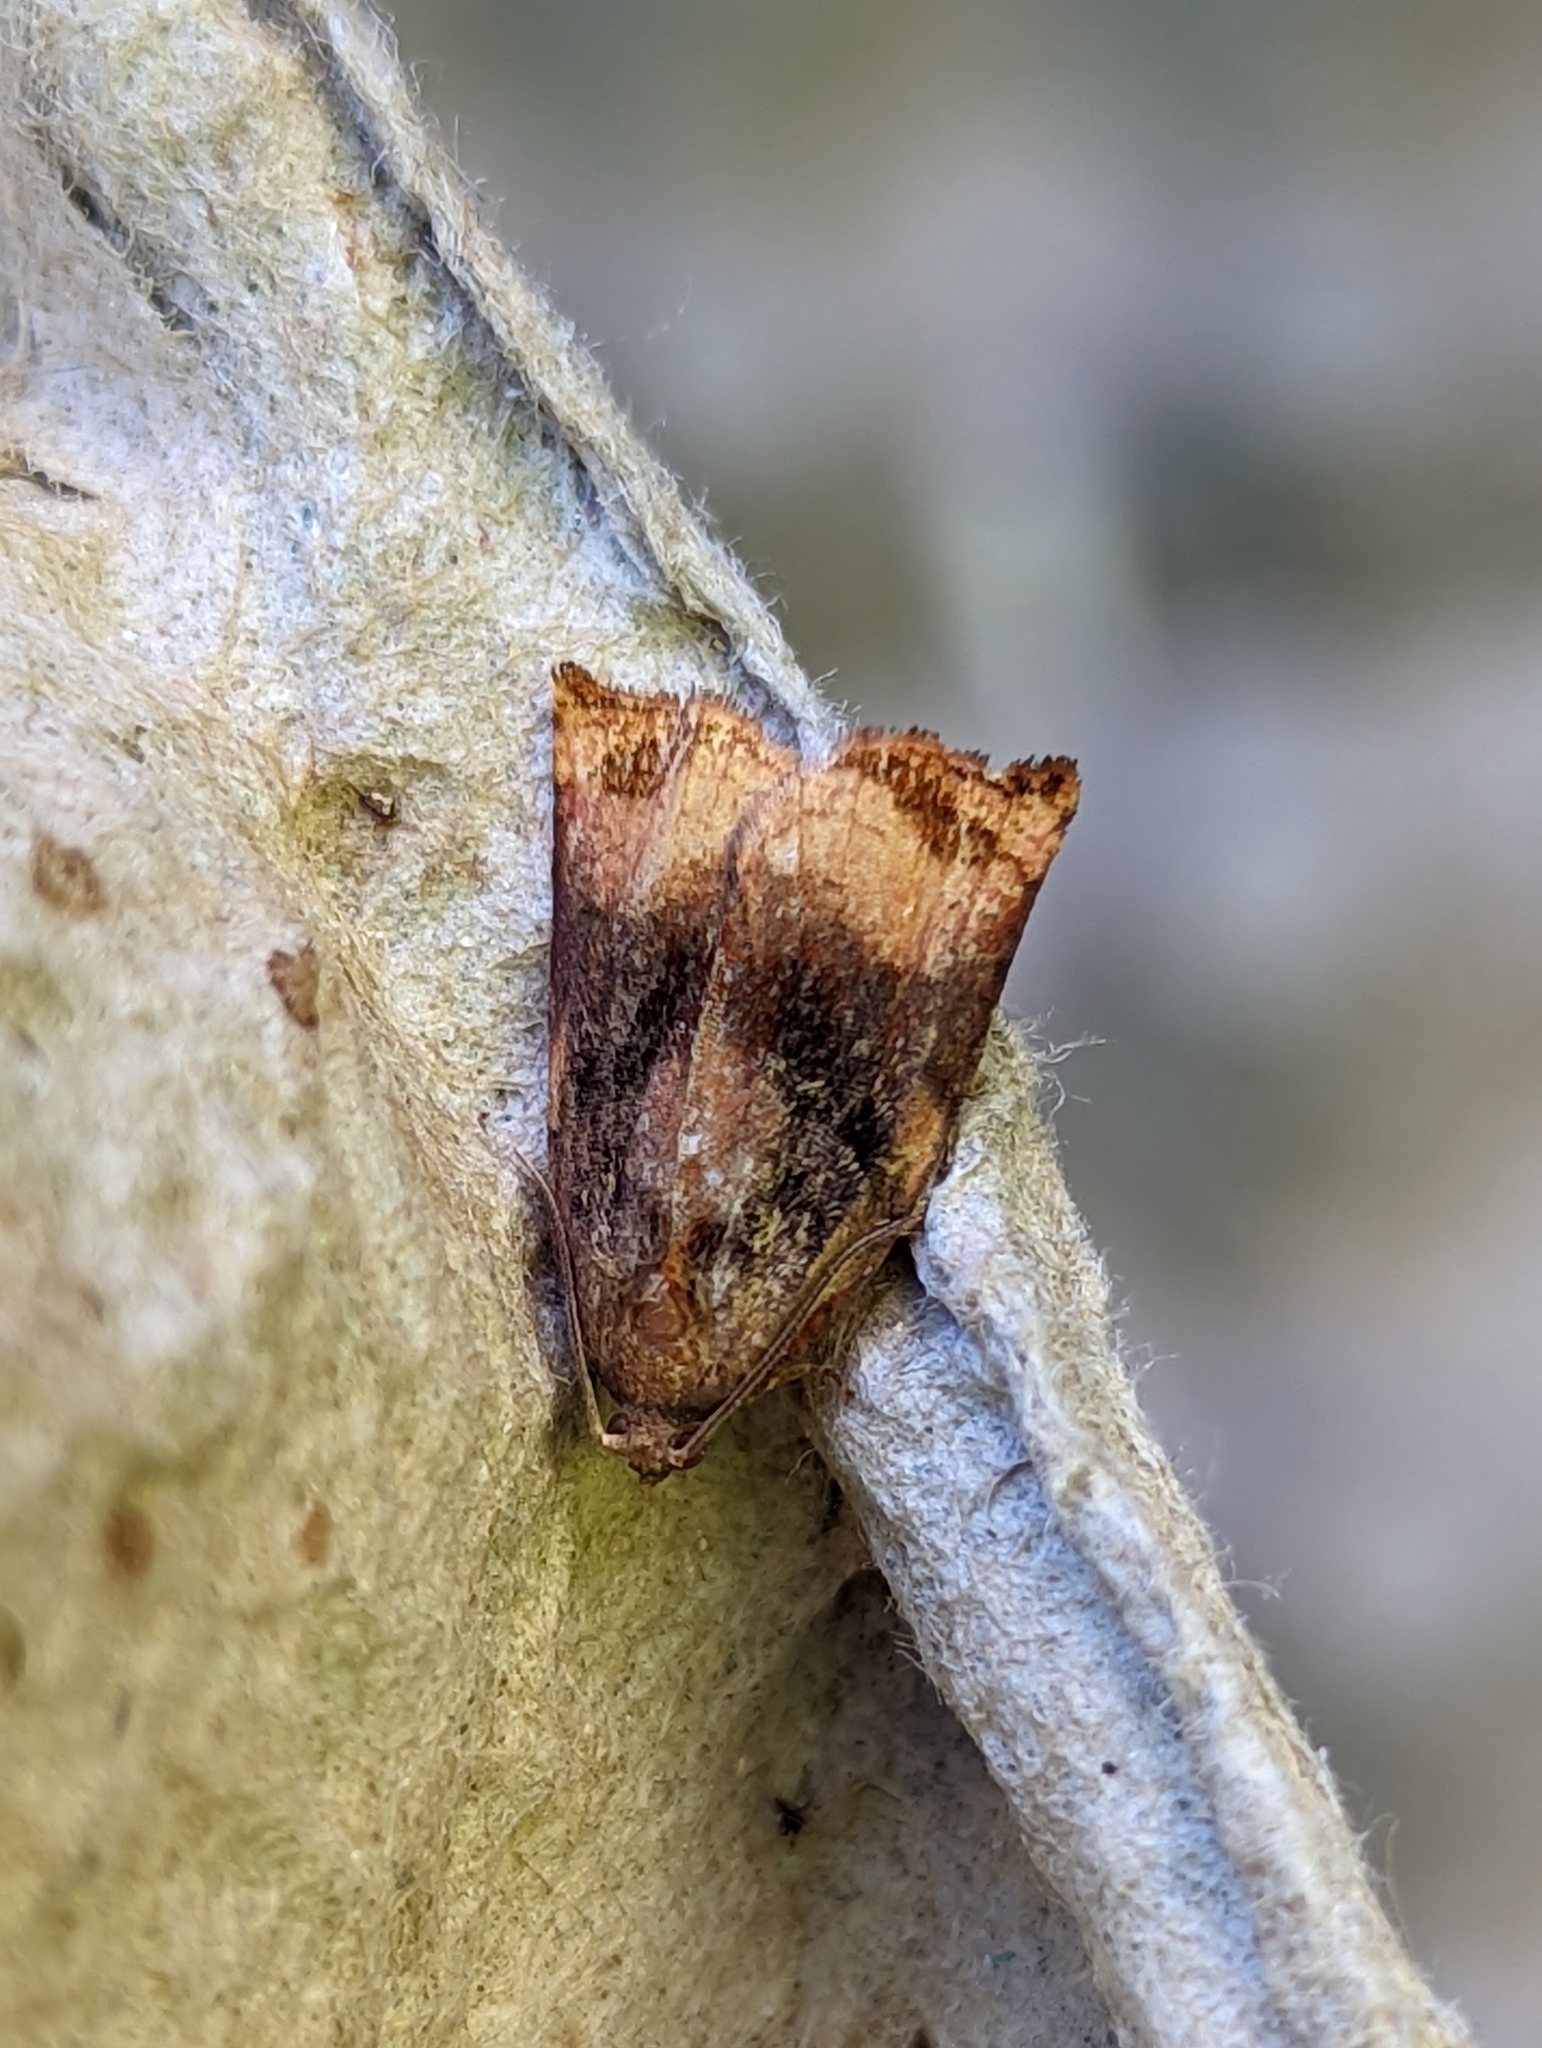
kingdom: Animalia
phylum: Arthropoda
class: Insecta
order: Lepidoptera
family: Tortricidae
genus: Archips
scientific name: Archips podana
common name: Large fruit-tree tortrix
